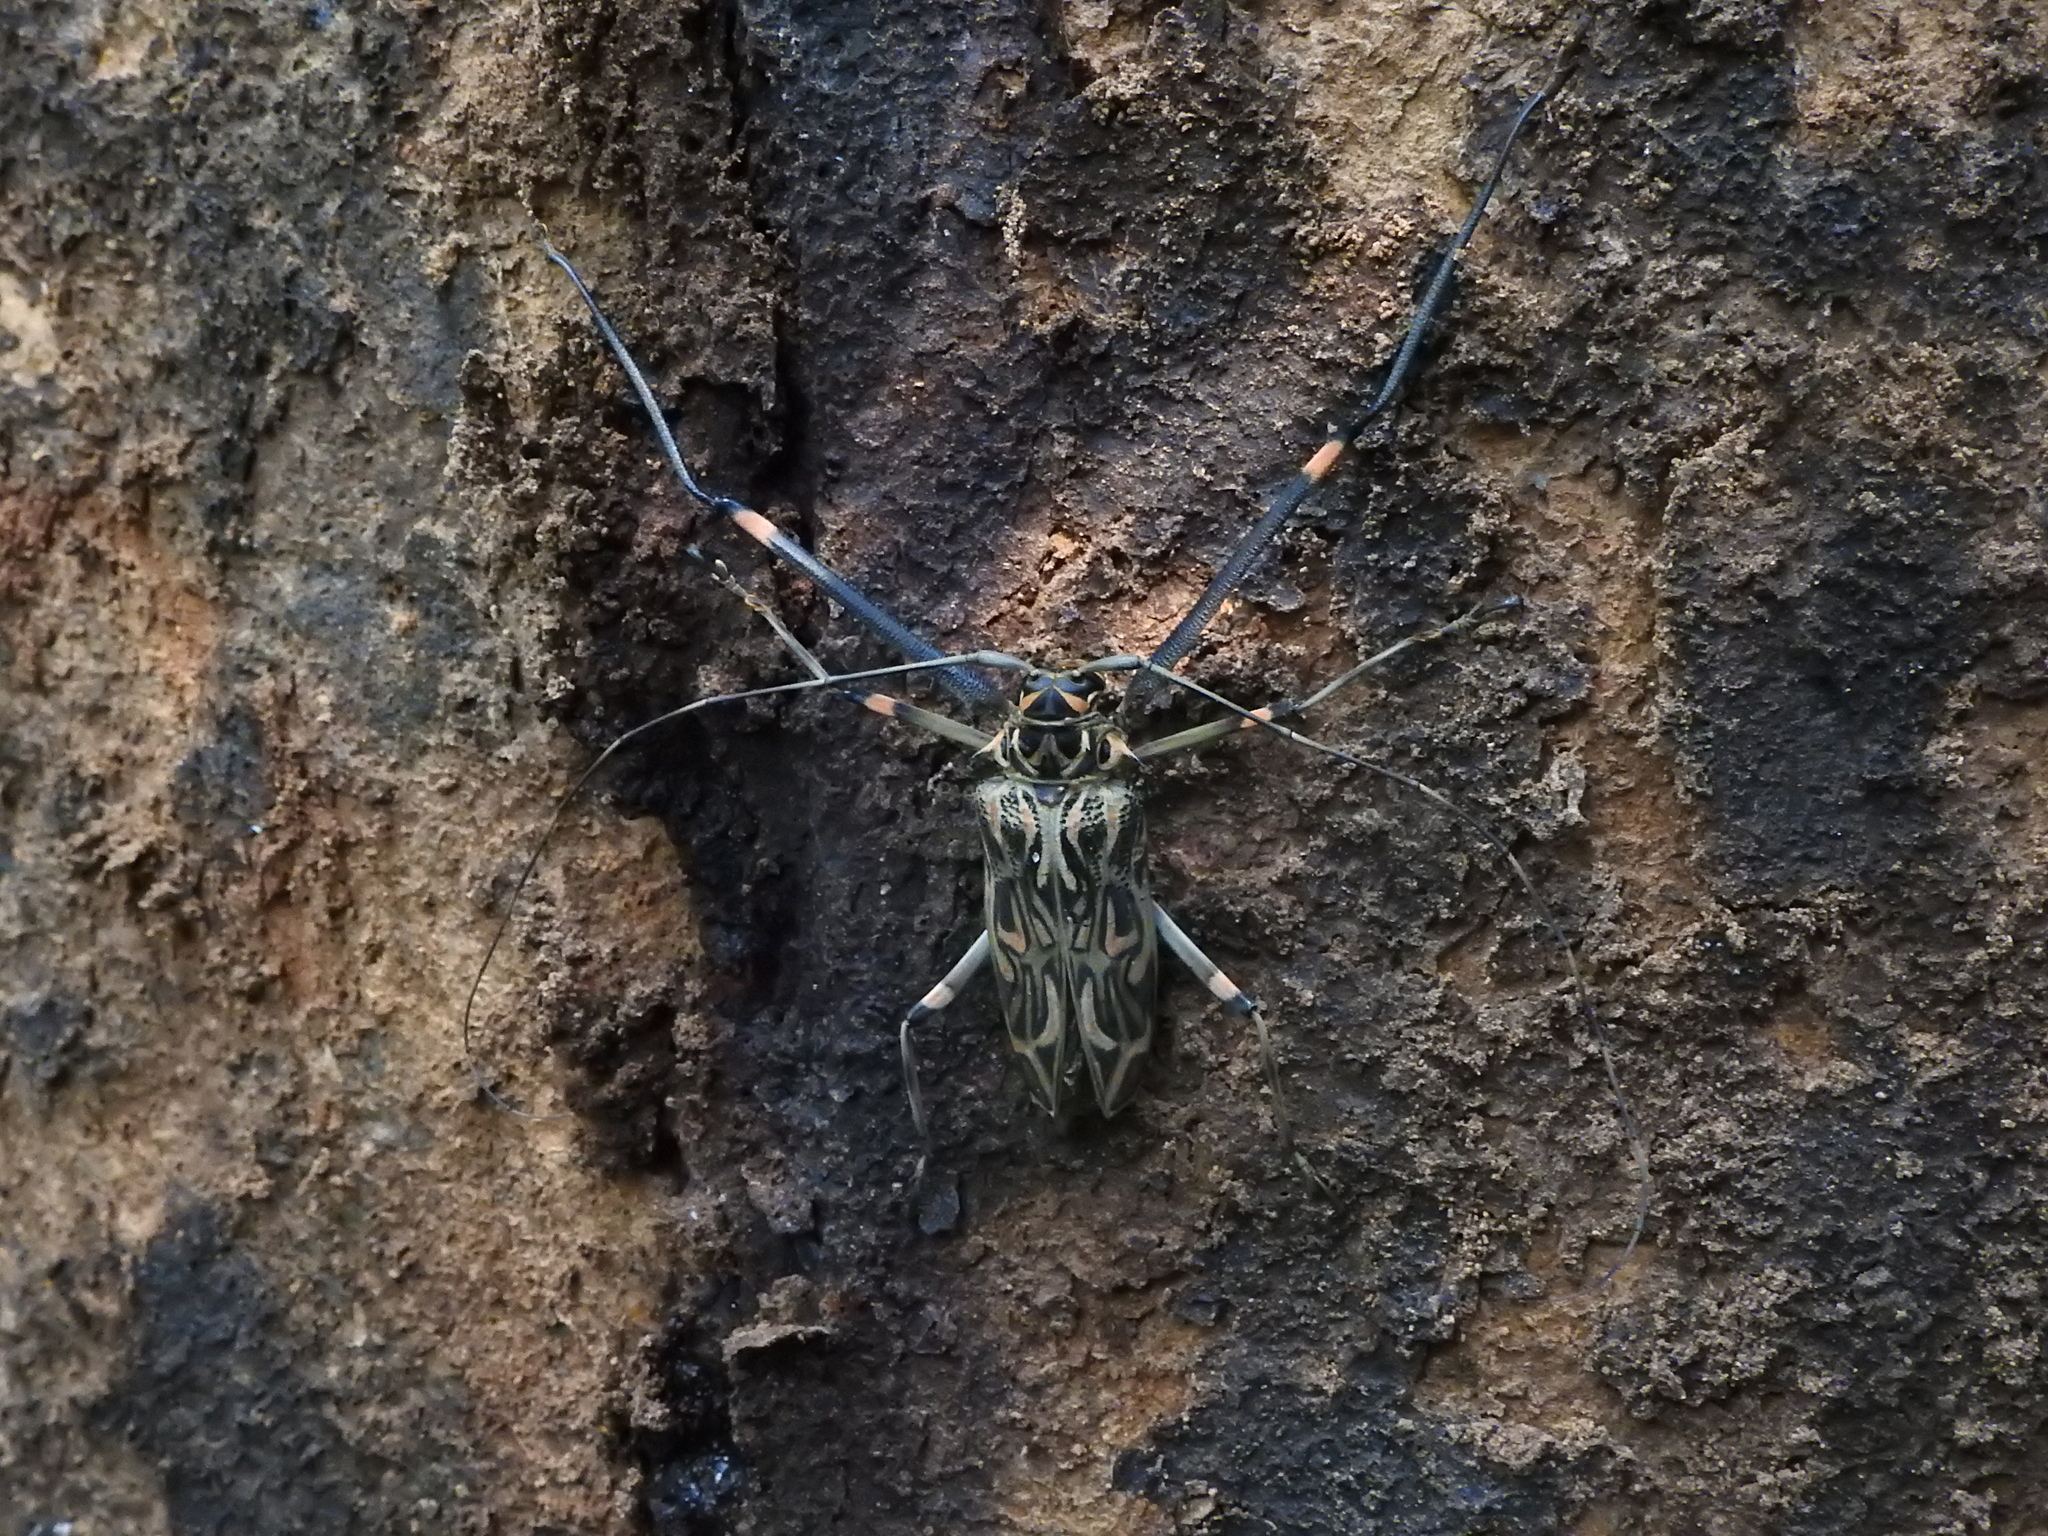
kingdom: Animalia
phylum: Arthropoda
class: Insecta
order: Coleoptera
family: Cerambycidae
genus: Acrocinus
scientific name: Acrocinus longimanus
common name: Arlequin
